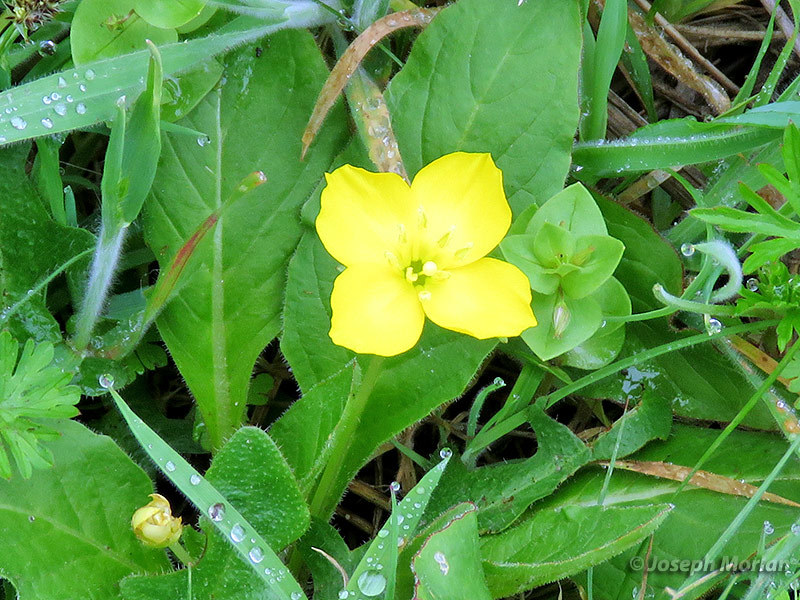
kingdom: Plantae
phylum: Tracheophyta
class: Magnoliopsida
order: Myrtales
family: Onagraceae
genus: Taraxia
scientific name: Taraxia ovata
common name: Goldeneggs
